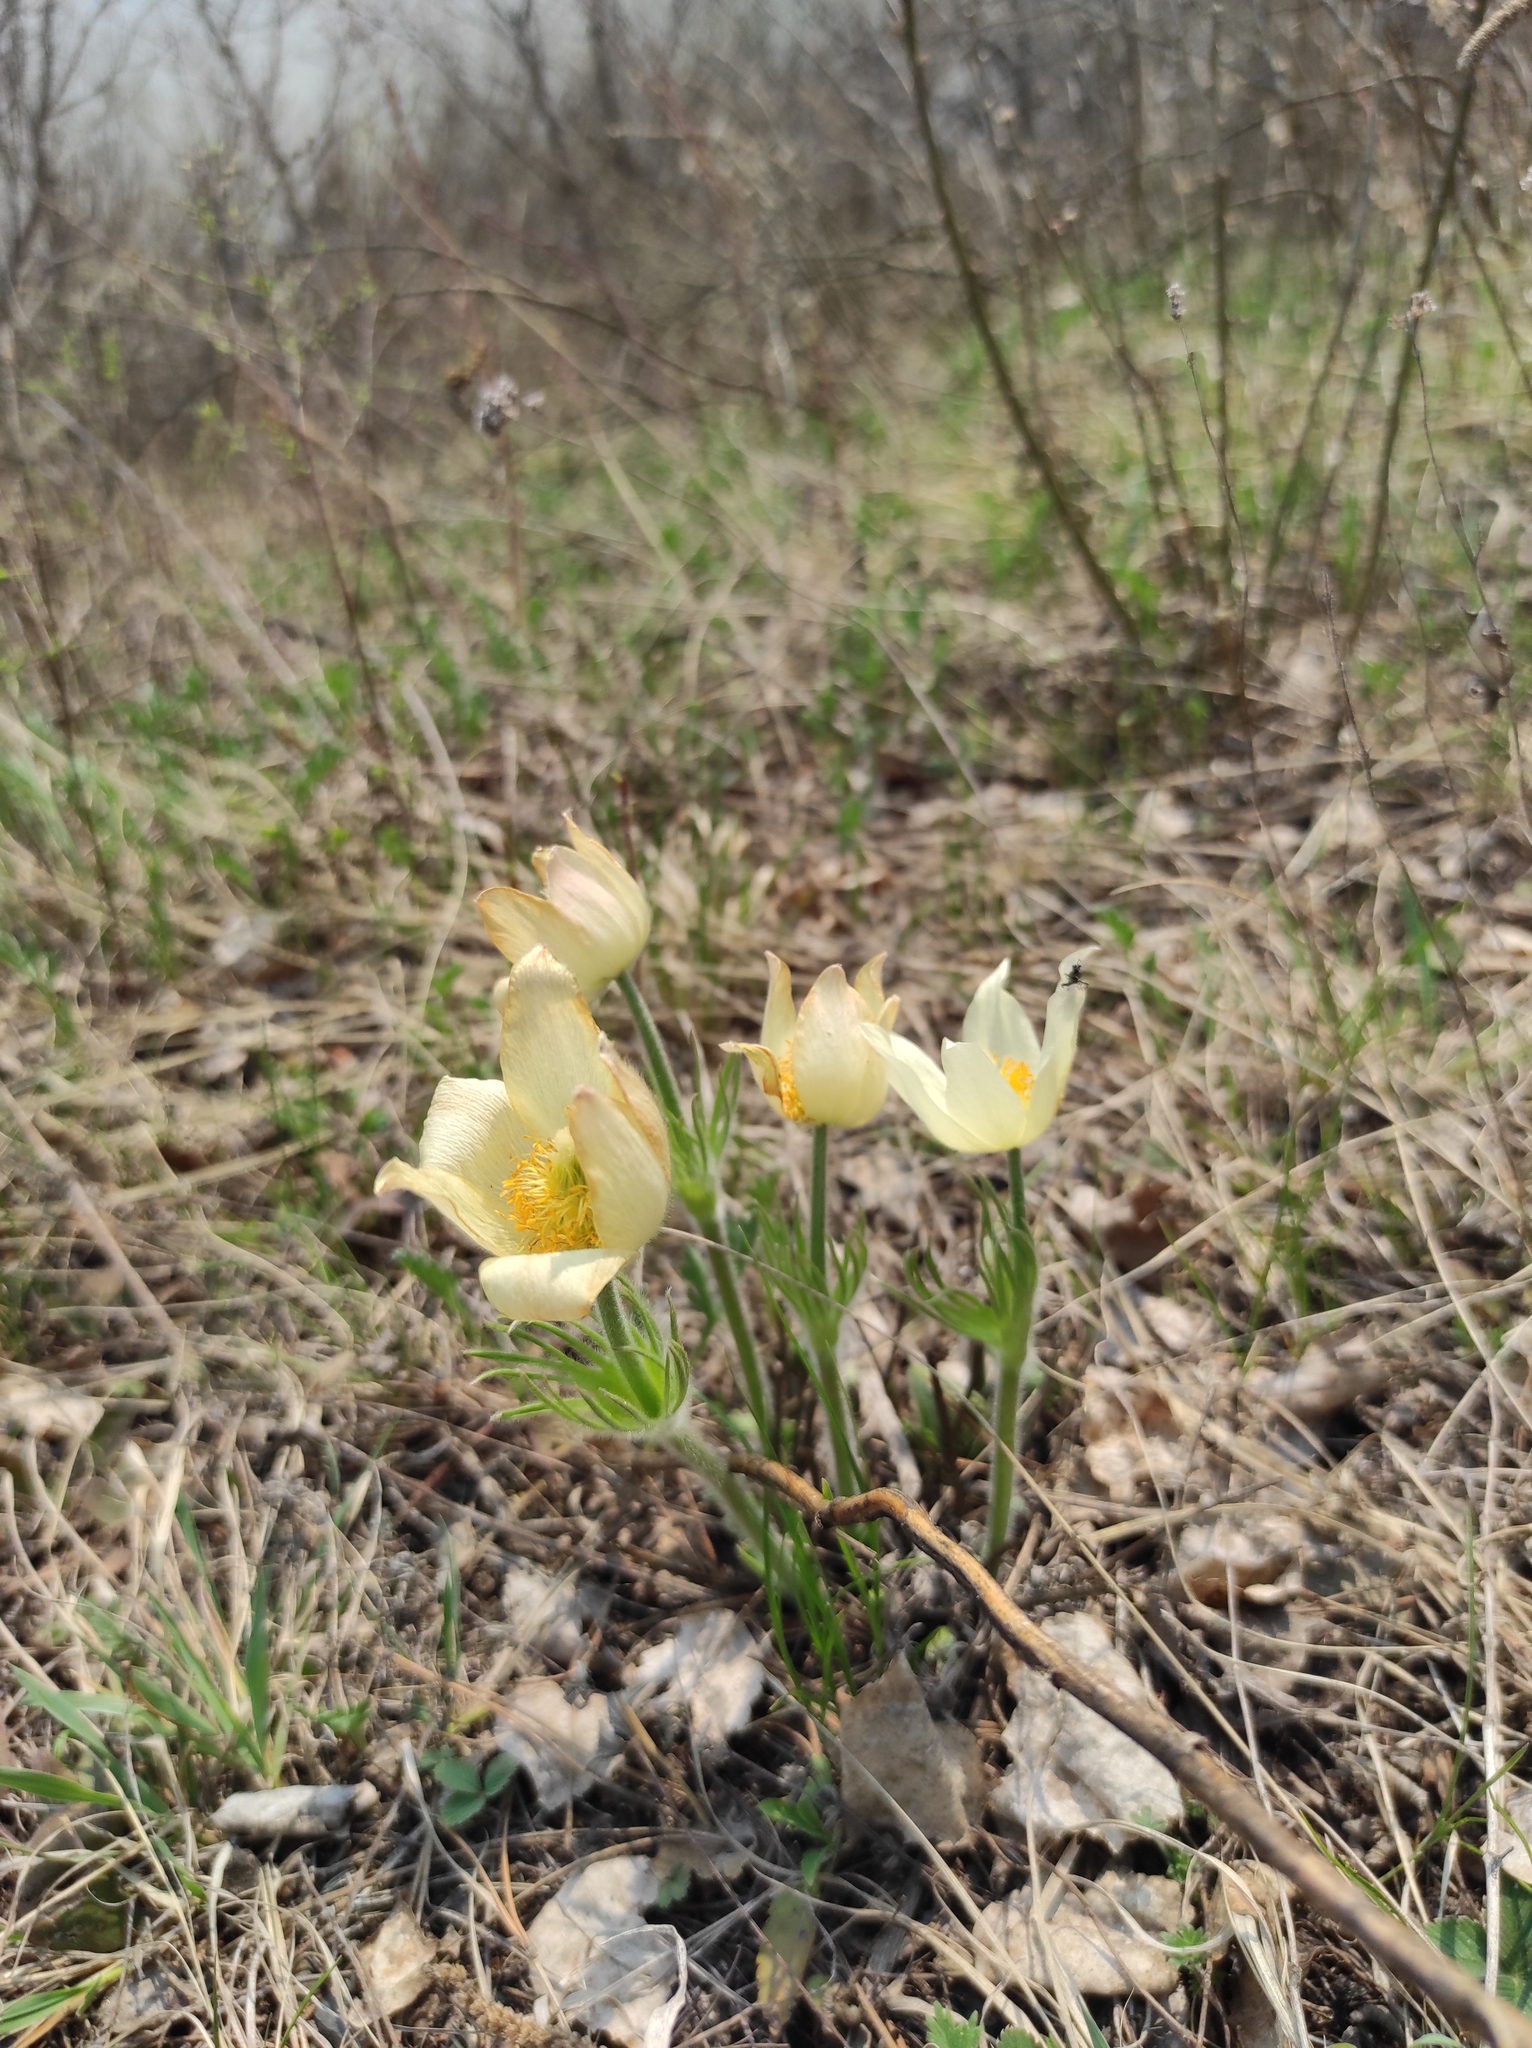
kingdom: Plantae
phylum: Tracheophyta
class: Magnoliopsida
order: Ranunculales
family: Ranunculaceae
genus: Pulsatilla
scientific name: Pulsatilla patens
